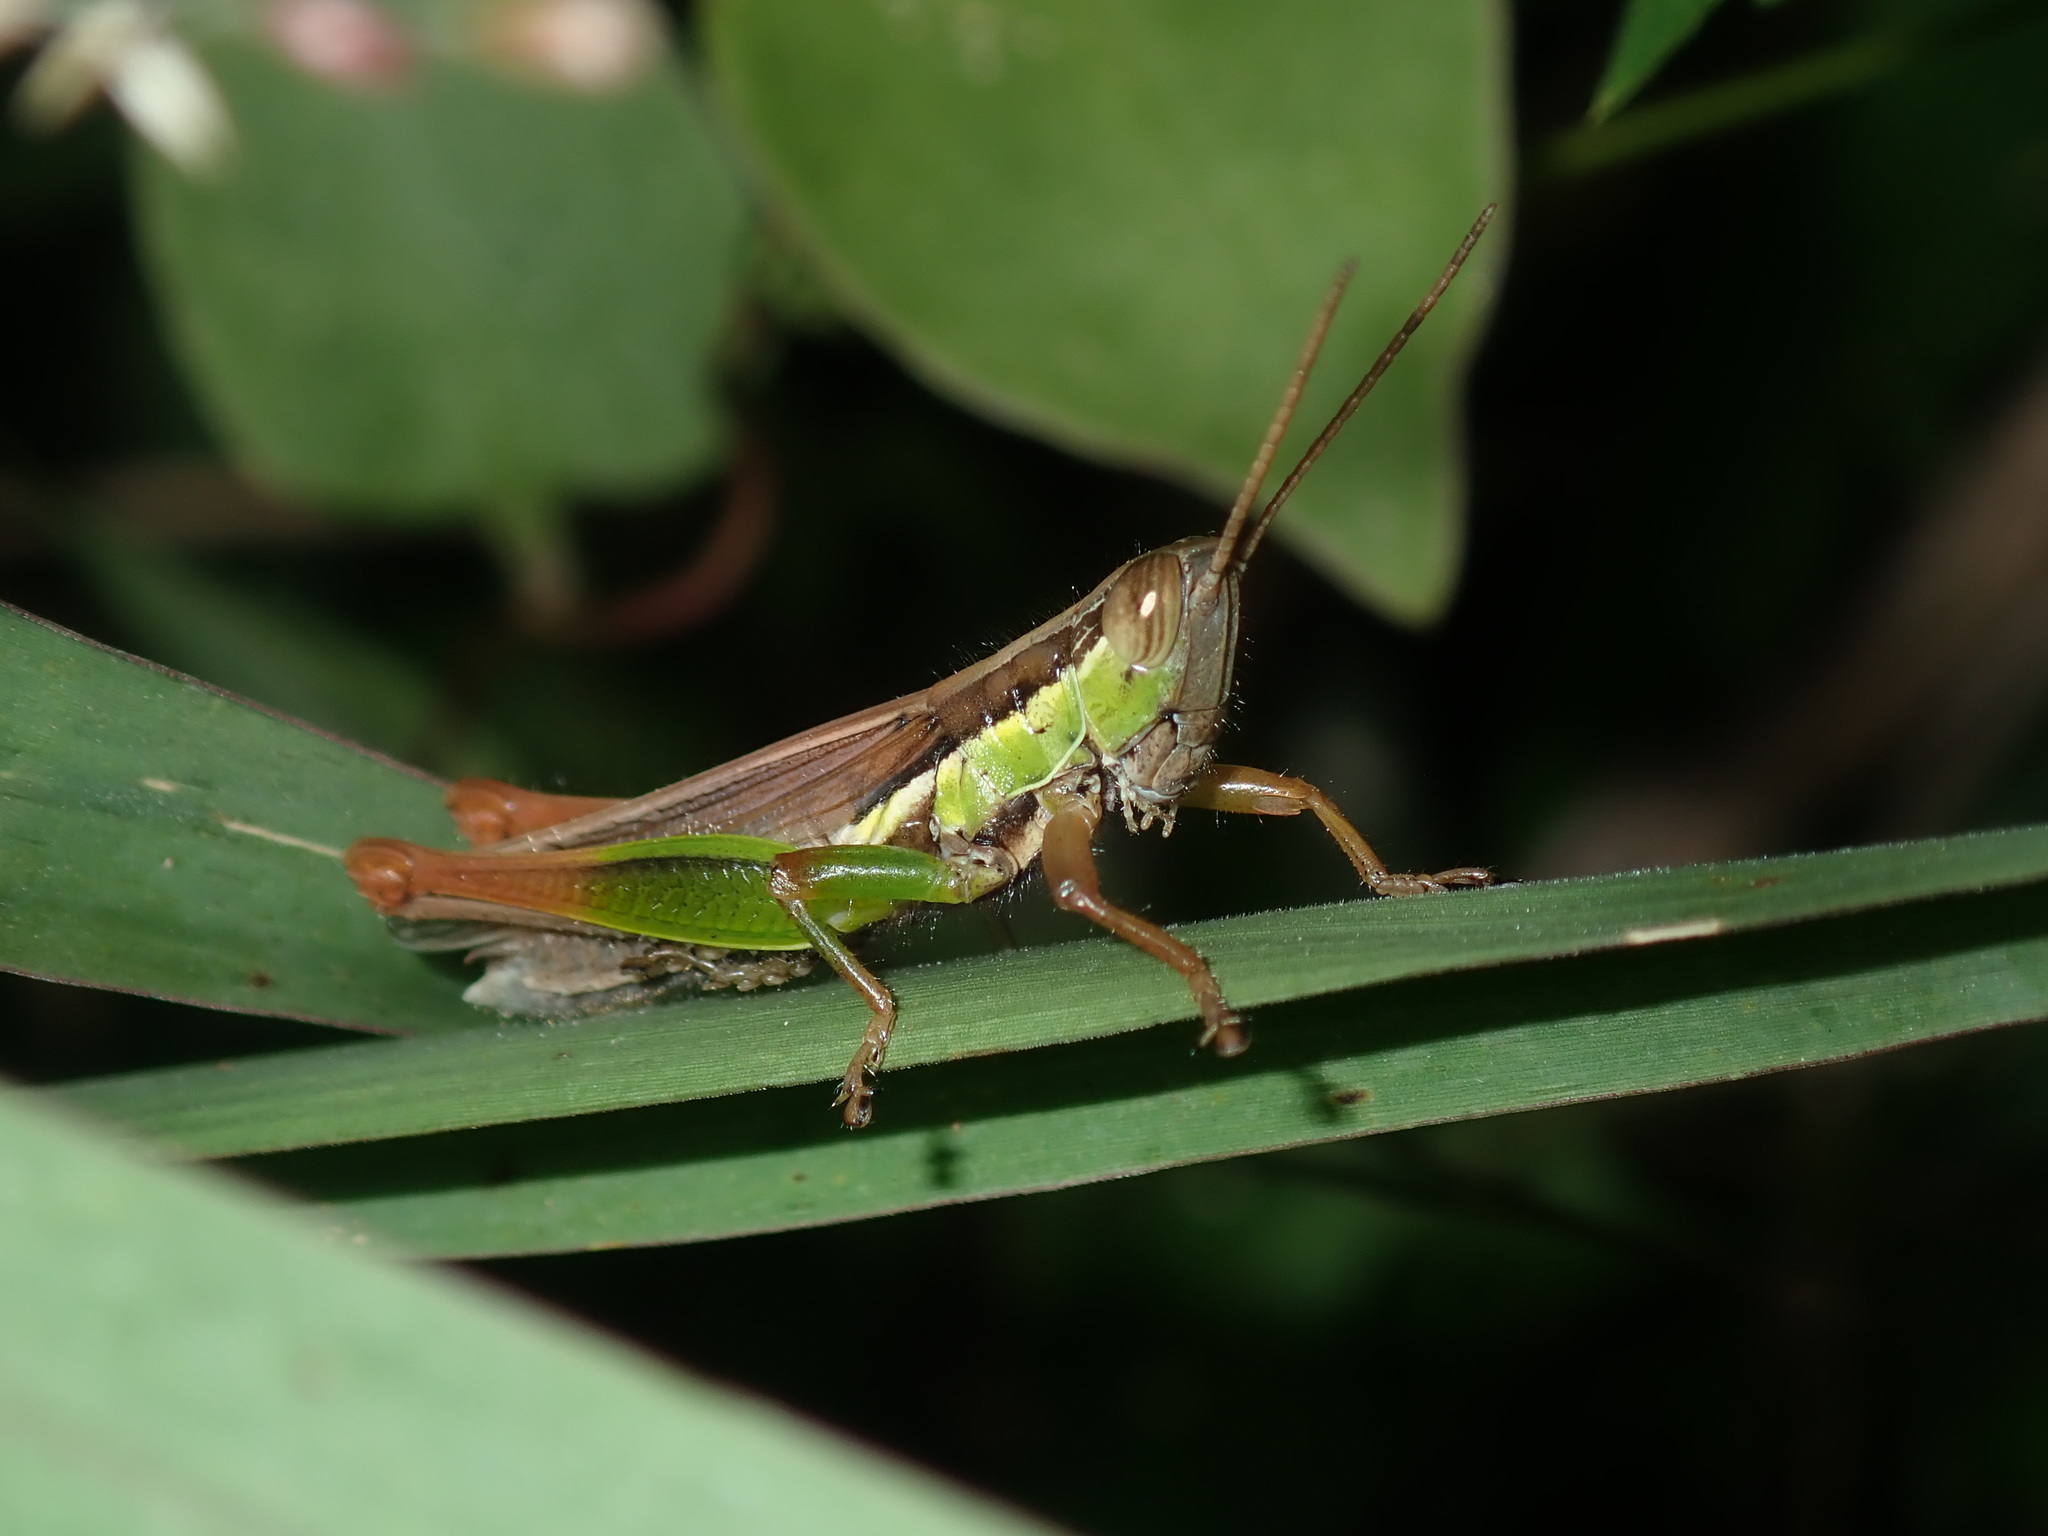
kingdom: Animalia
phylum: Arthropoda
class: Insecta
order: Orthoptera
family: Acrididae
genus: Bermius
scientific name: Bermius brachycerus
